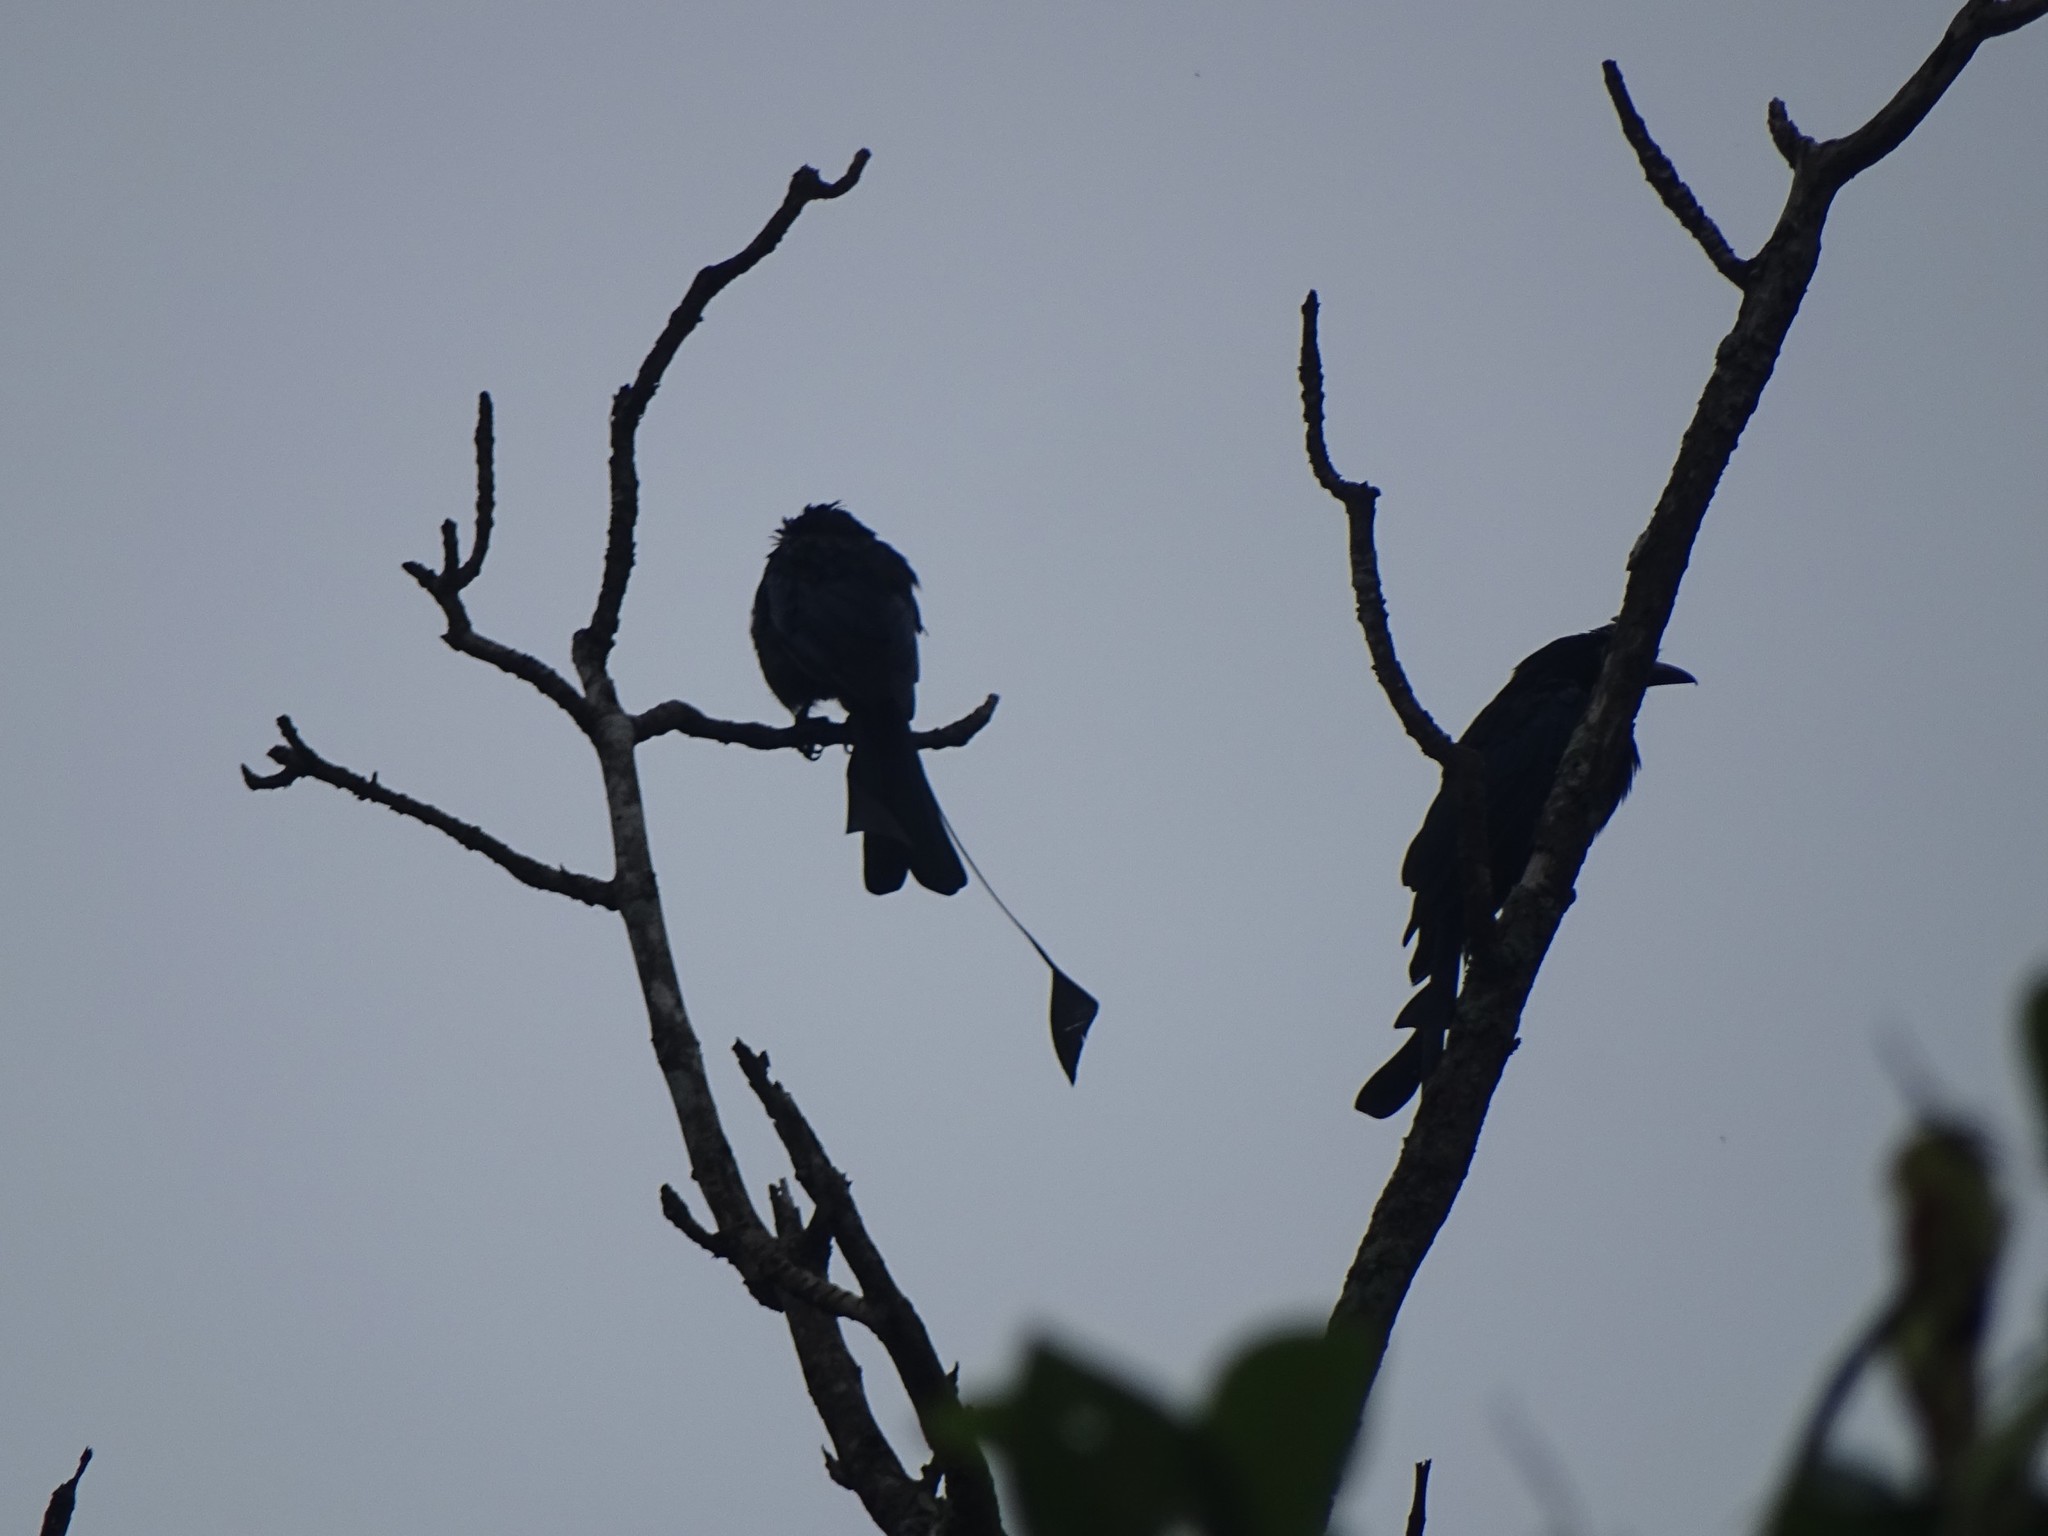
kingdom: Animalia
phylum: Chordata
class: Aves
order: Passeriformes
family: Dicruridae
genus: Dicrurus
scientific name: Dicrurus paradiseus
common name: Greater racket-tailed drongo
